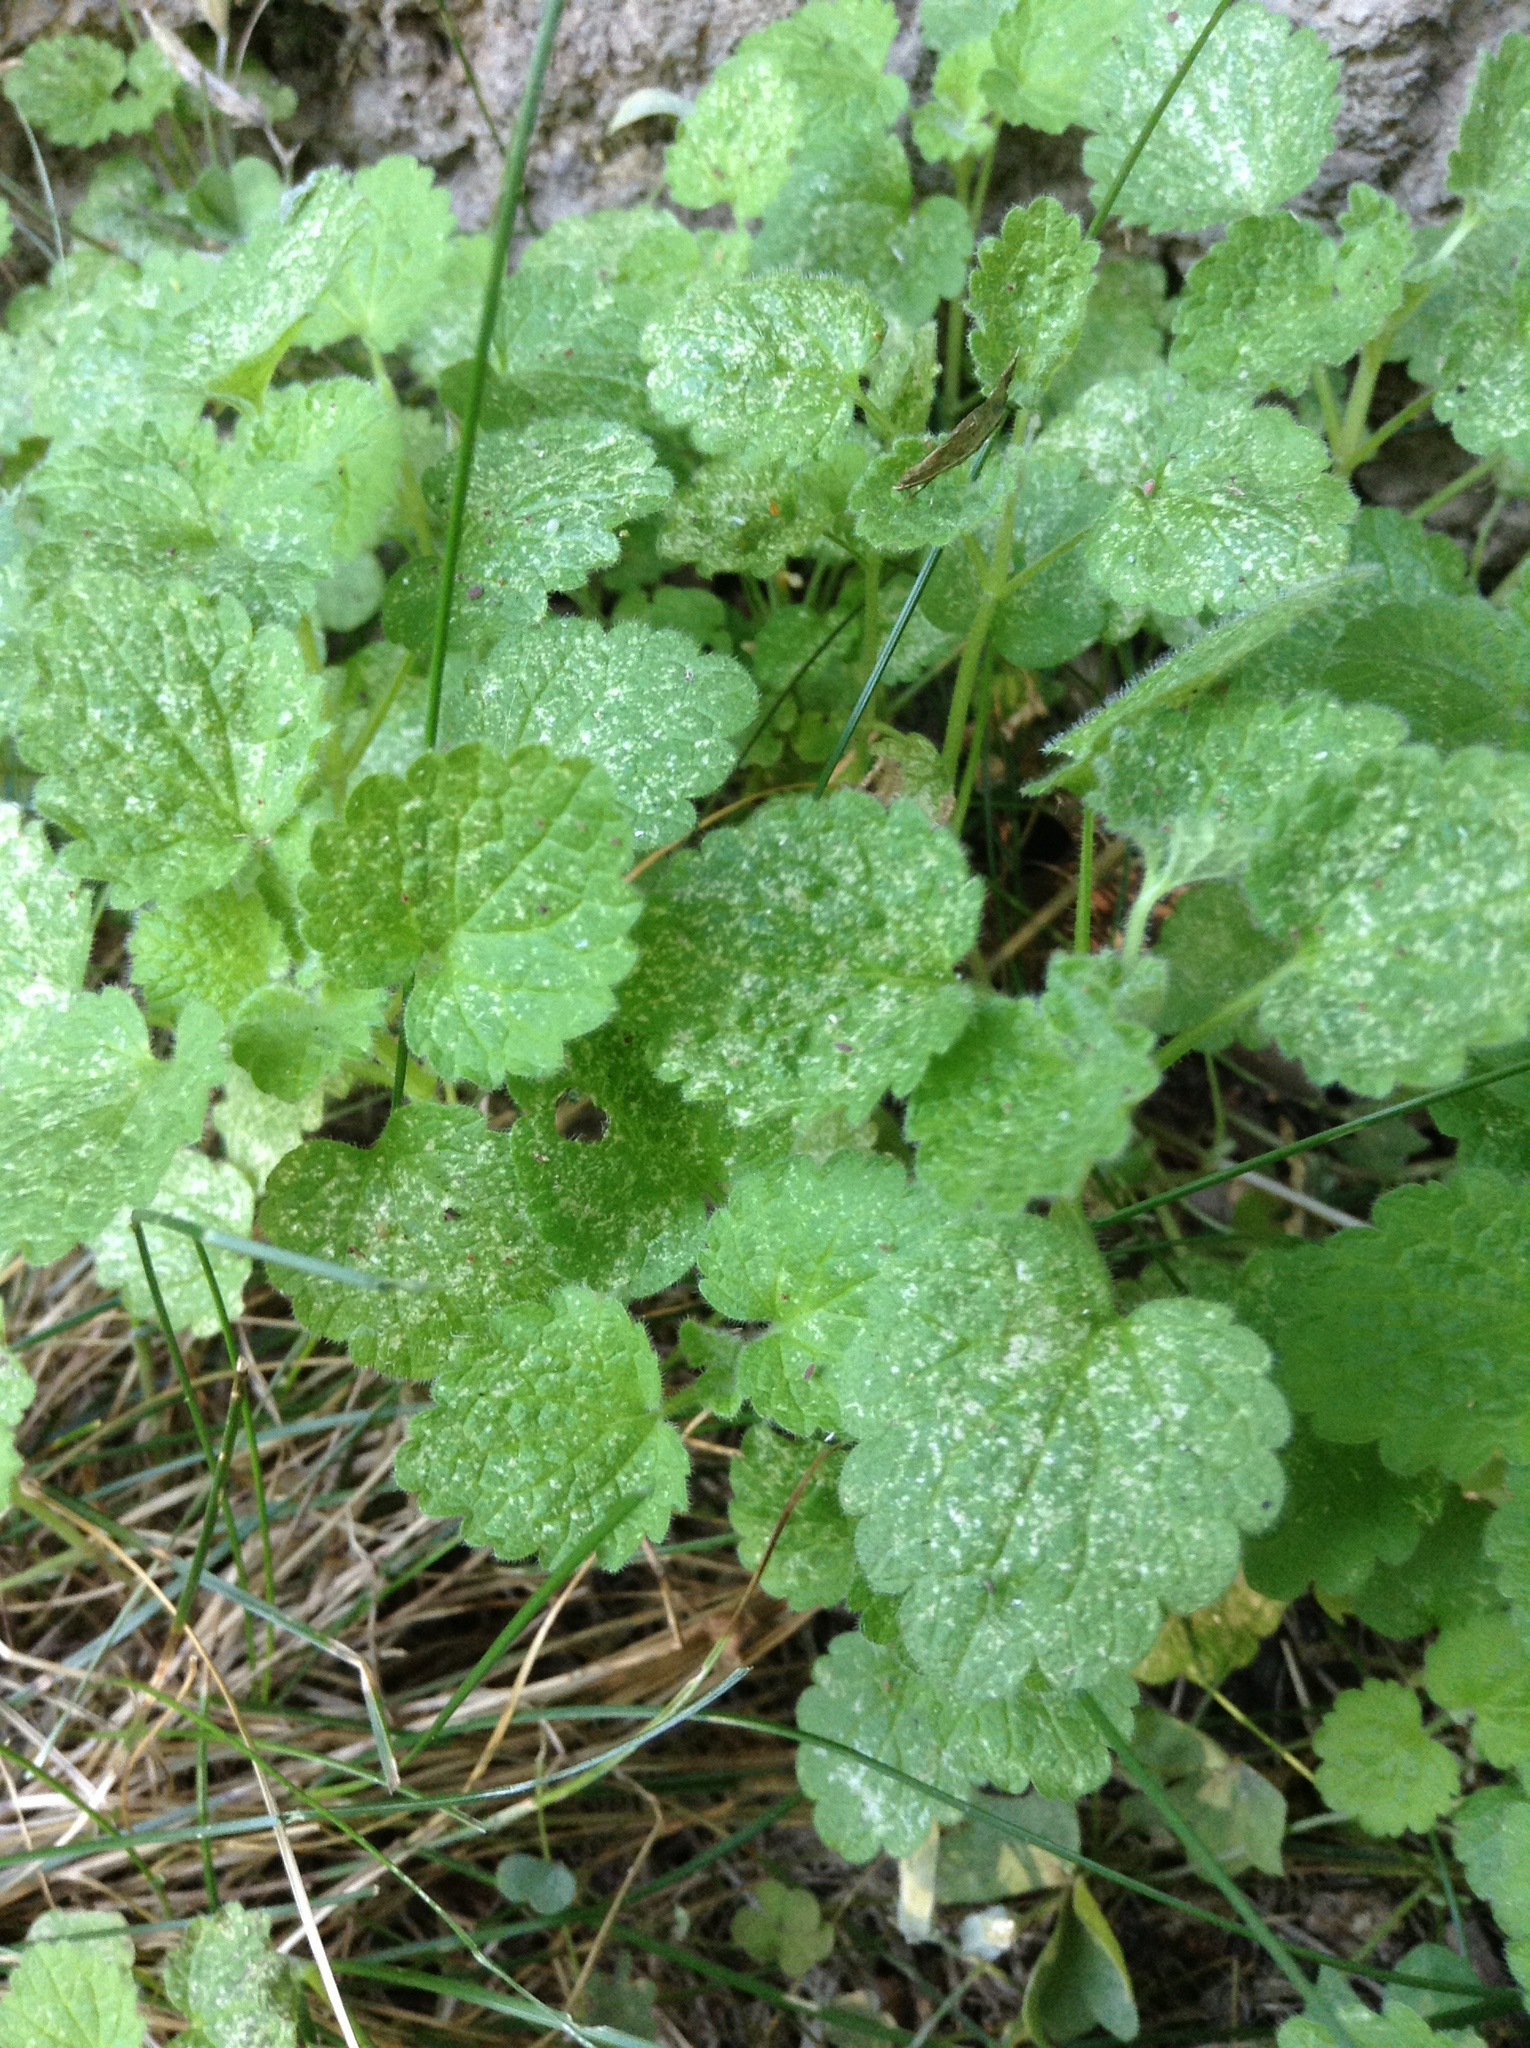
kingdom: Plantae
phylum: Tracheophyta
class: Magnoliopsida
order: Lamiales
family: Lamiaceae
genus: Lamium
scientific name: Lamium purpureum
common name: Red dead-nettle
